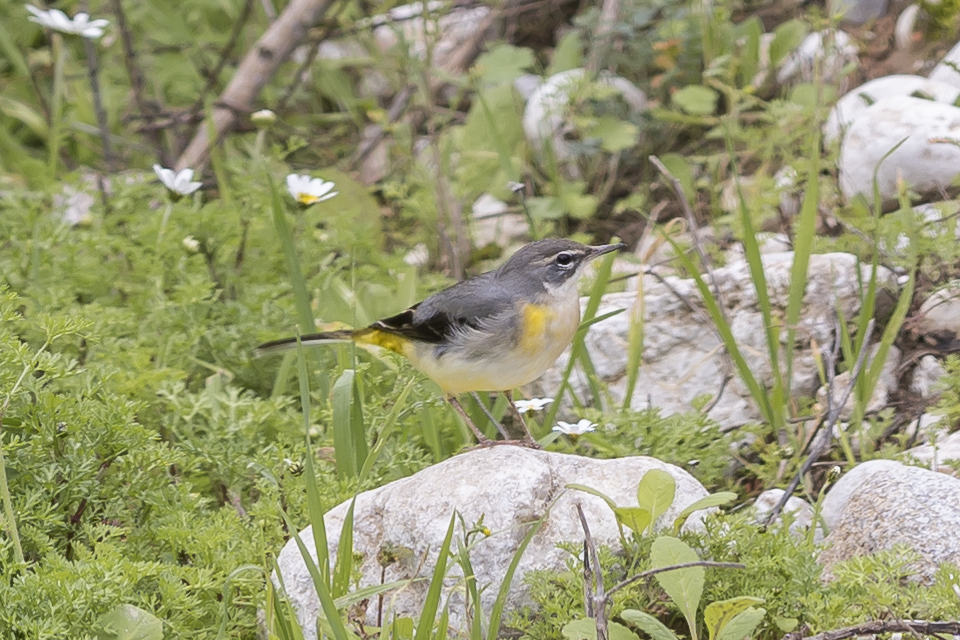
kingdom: Animalia
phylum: Chordata
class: Aves
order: Passeriformes
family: Motacillidae
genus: Motacilla
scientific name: Motacilla cinerea
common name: Grey wagtail
